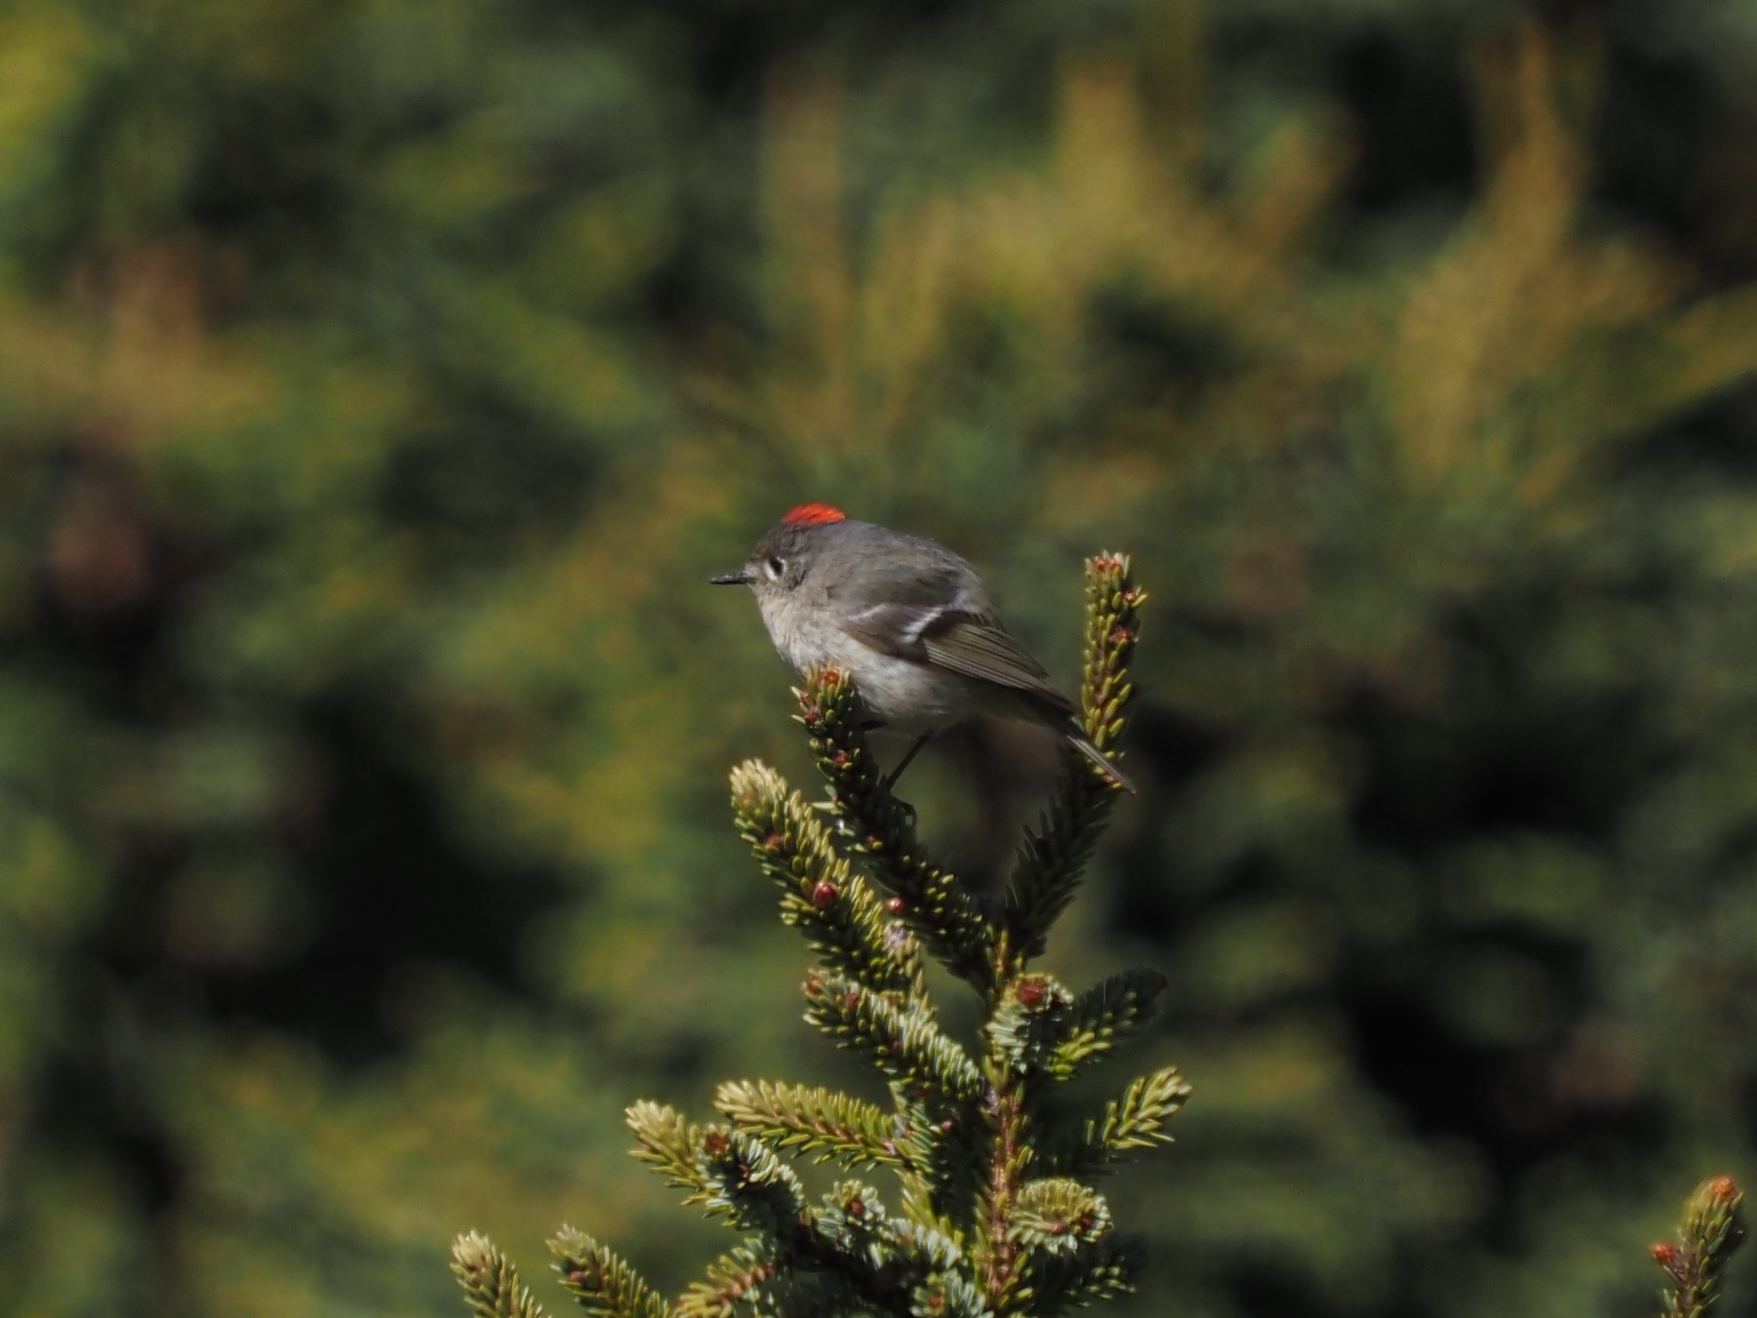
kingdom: Animalia
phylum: Chordata
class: Aves
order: Passeriformes
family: Regulidae
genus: Regulus
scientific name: Regulus calendula
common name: Ruby-crowned kinglet
